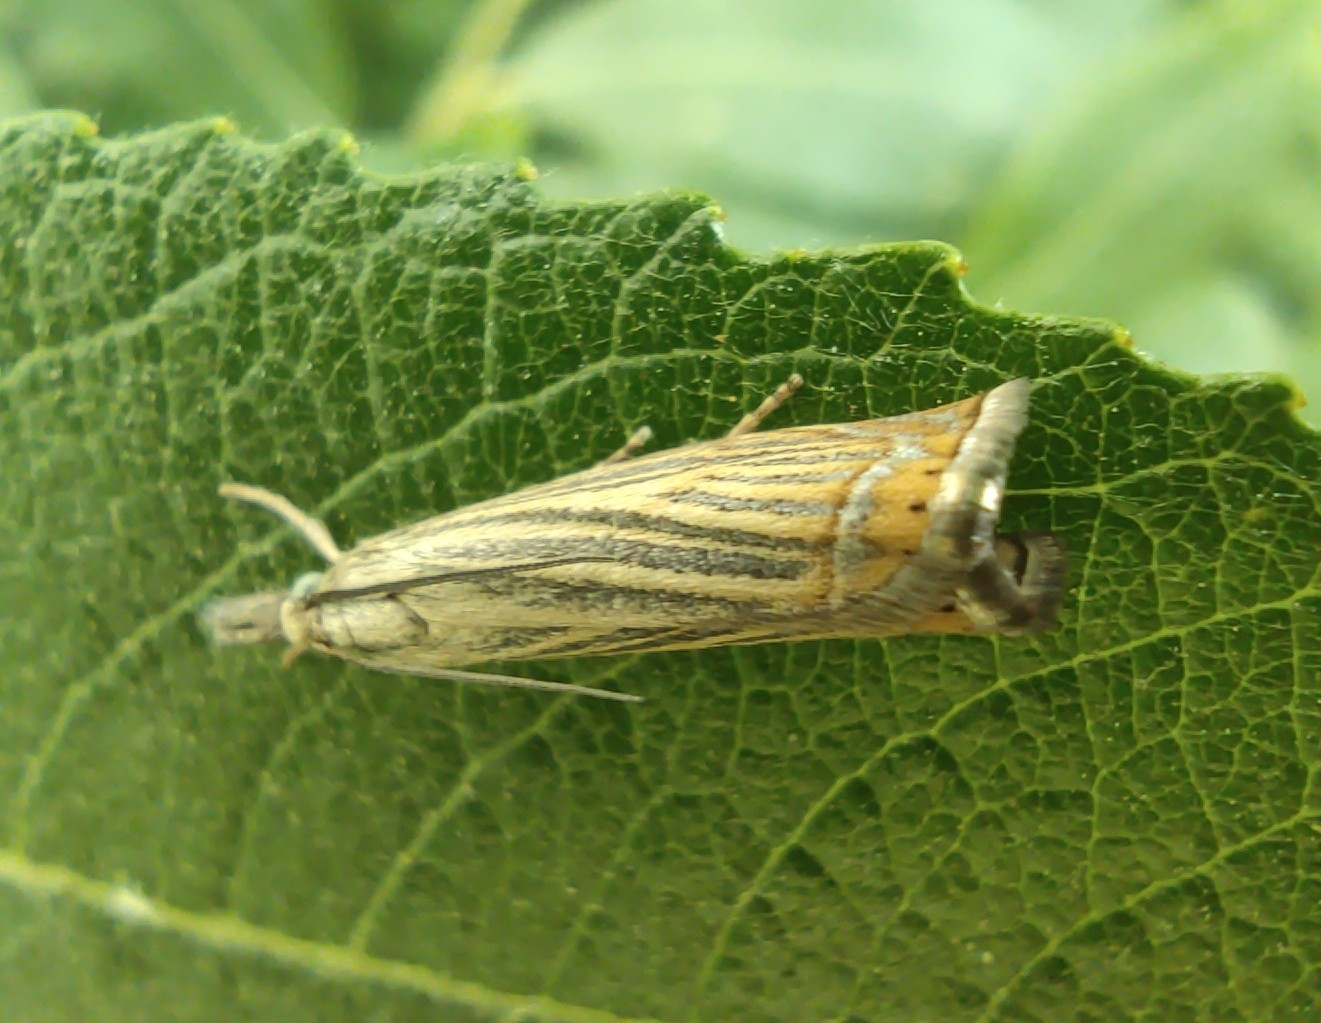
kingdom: Animalia
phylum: Arthropoda
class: Insecta
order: Lepidoptera
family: Crambidae
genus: Chrysoteuchia
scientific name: Chrysoteuchia culmella
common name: Garden grass-veneer
